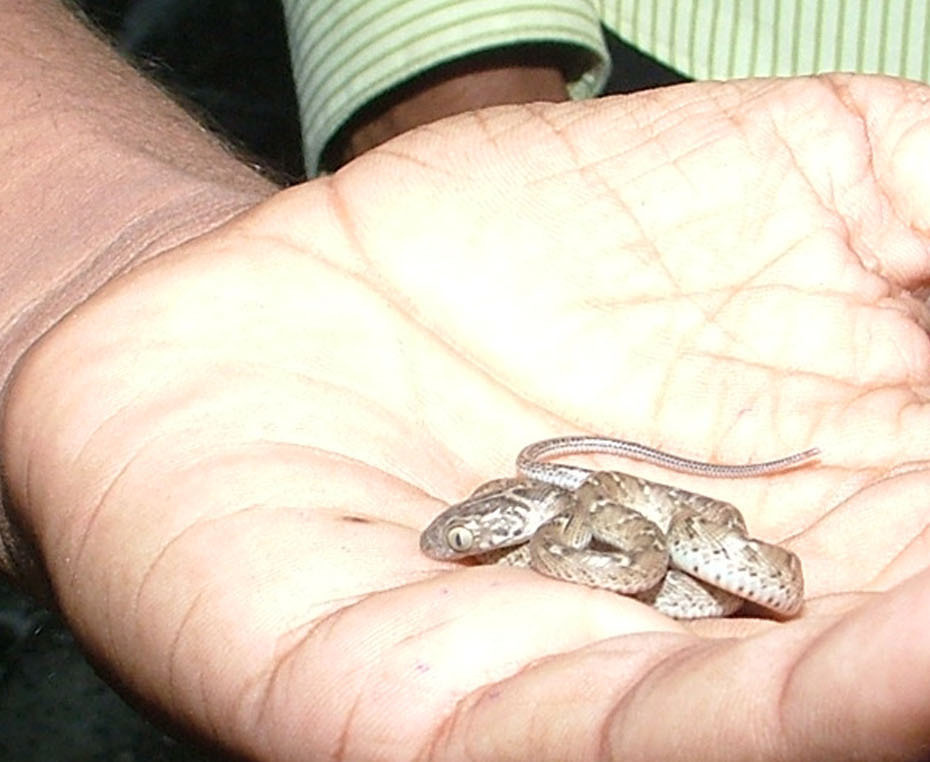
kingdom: Animalia
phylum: Chordata
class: Squamata
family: Colubridae
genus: Boiga
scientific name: Boiga trigonata
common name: Common cat snake
